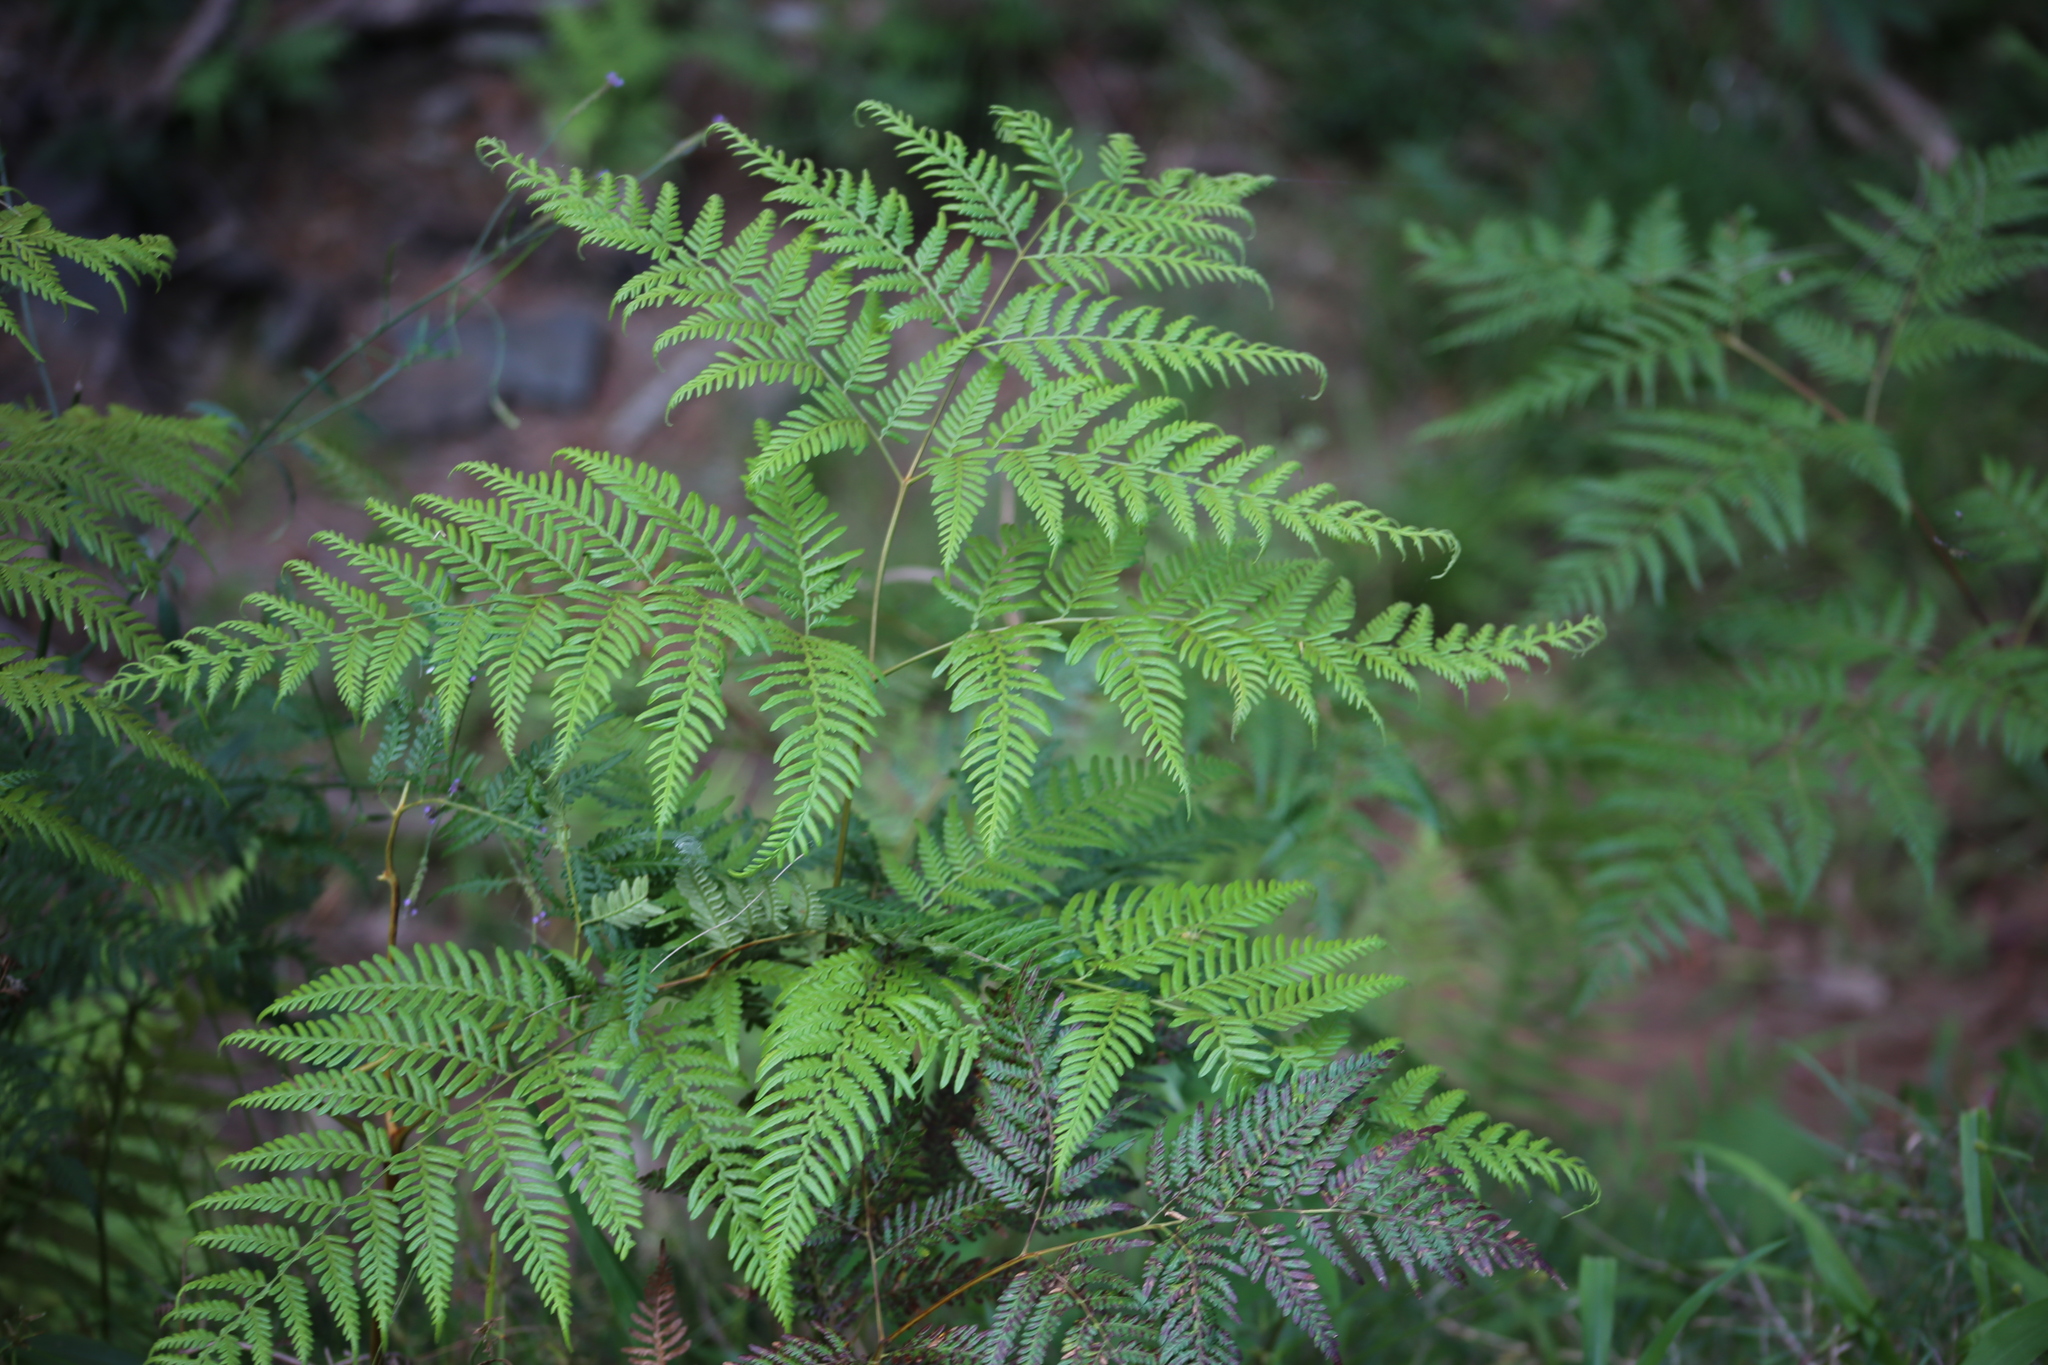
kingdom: Plantae
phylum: Tracheophyta
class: Polypodiopsida
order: Polypodiales
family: Dennstaedtiaceae
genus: Pteridium
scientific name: Pteridium esculentum
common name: Bracken fern
